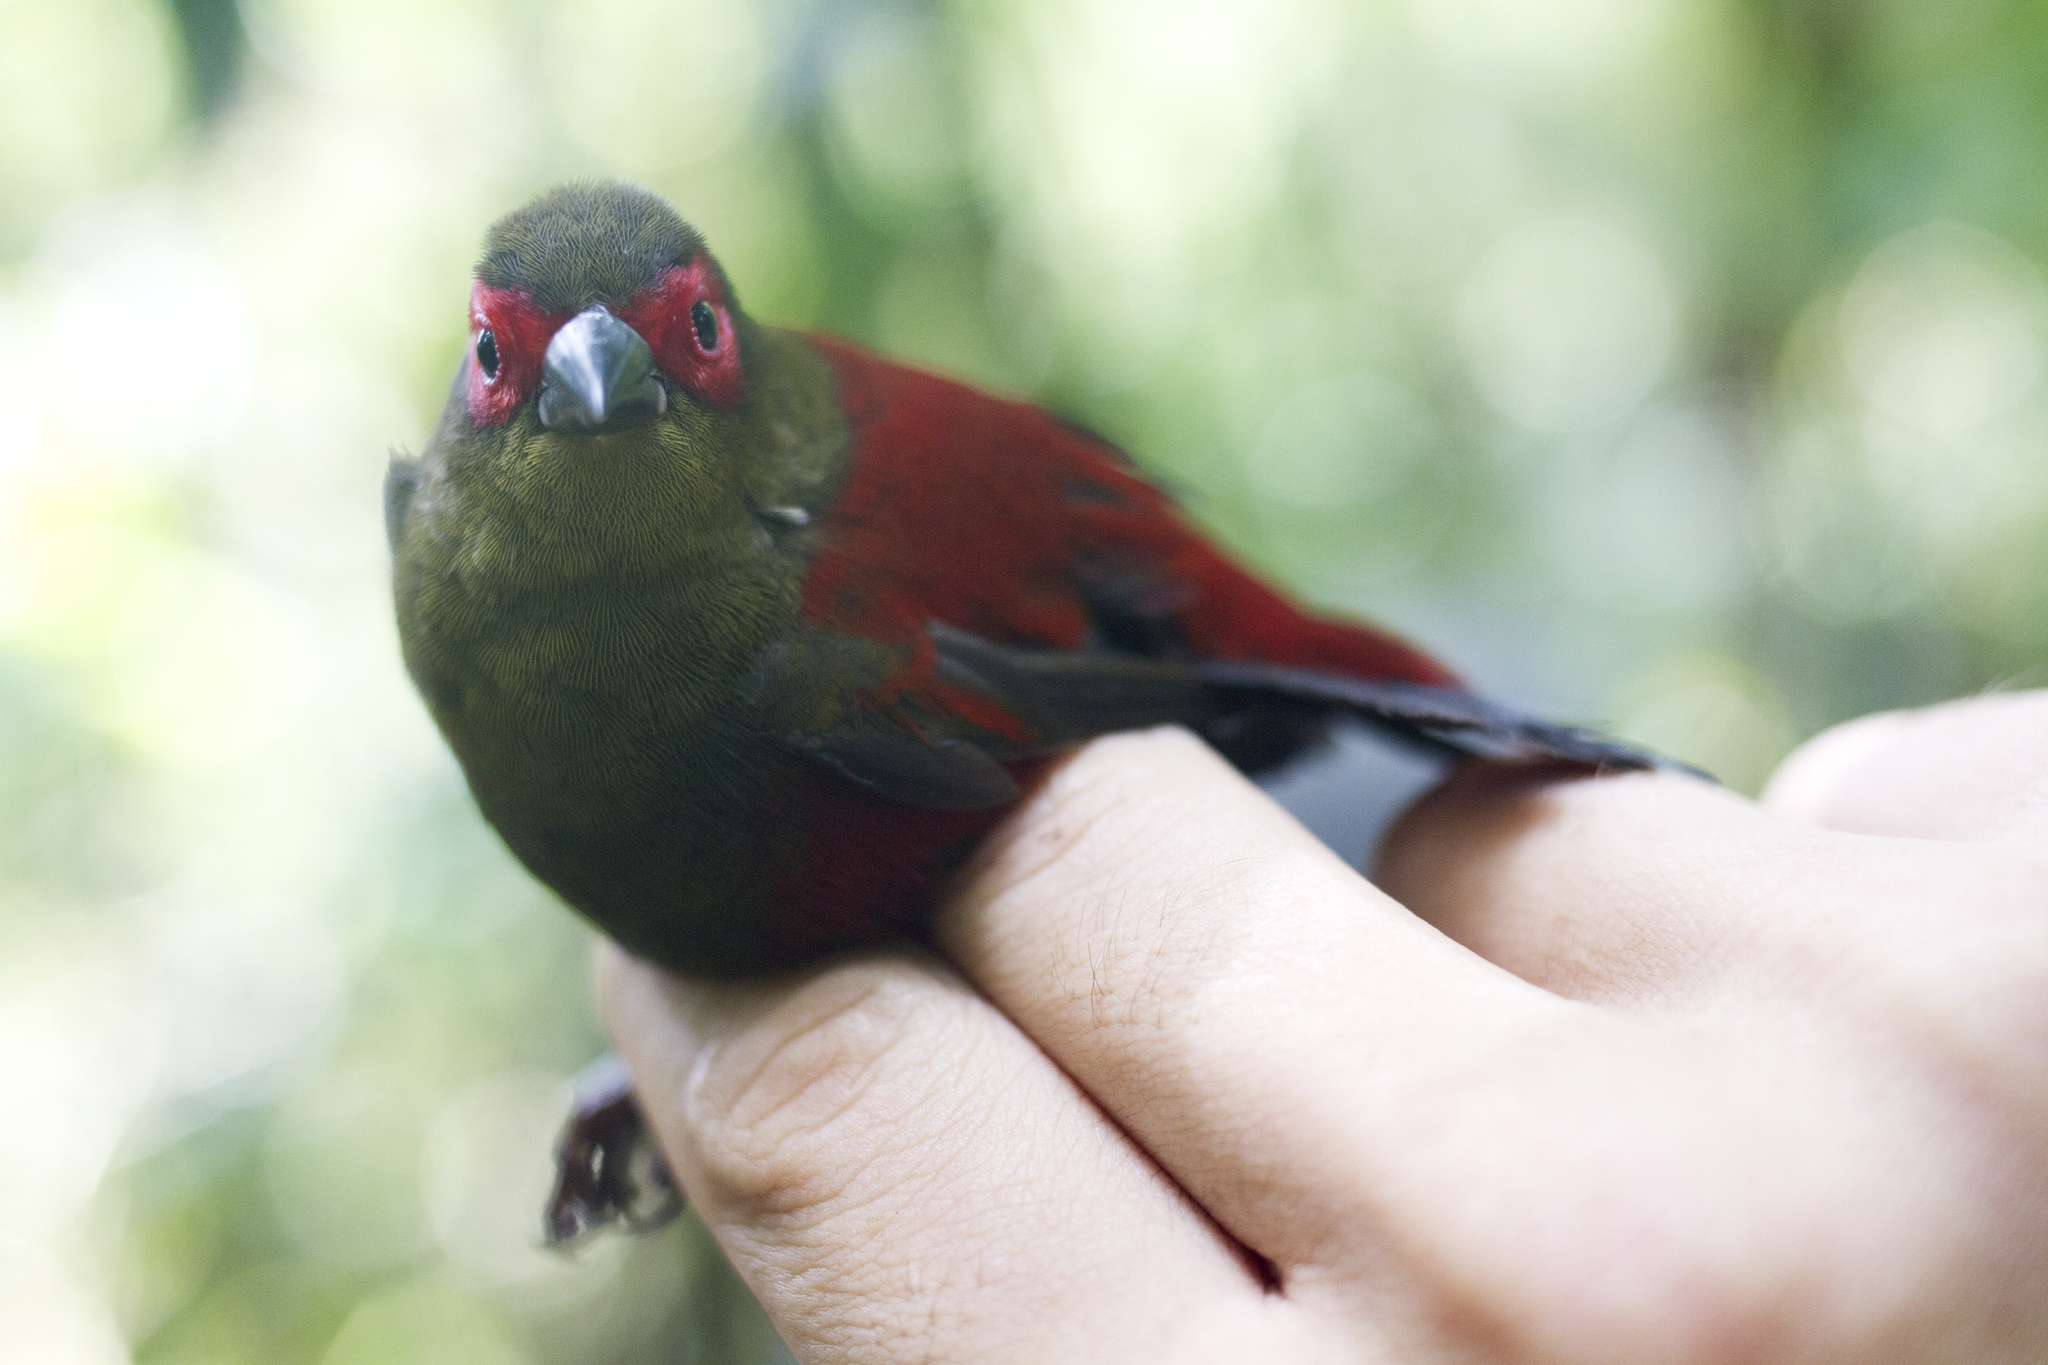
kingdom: Animalia
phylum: Chordata
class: Aves
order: Passeriformes
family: Estrildidae
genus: Cryptospiza
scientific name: Cryptospiza reichenovii
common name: Red-faced crimsonwing
